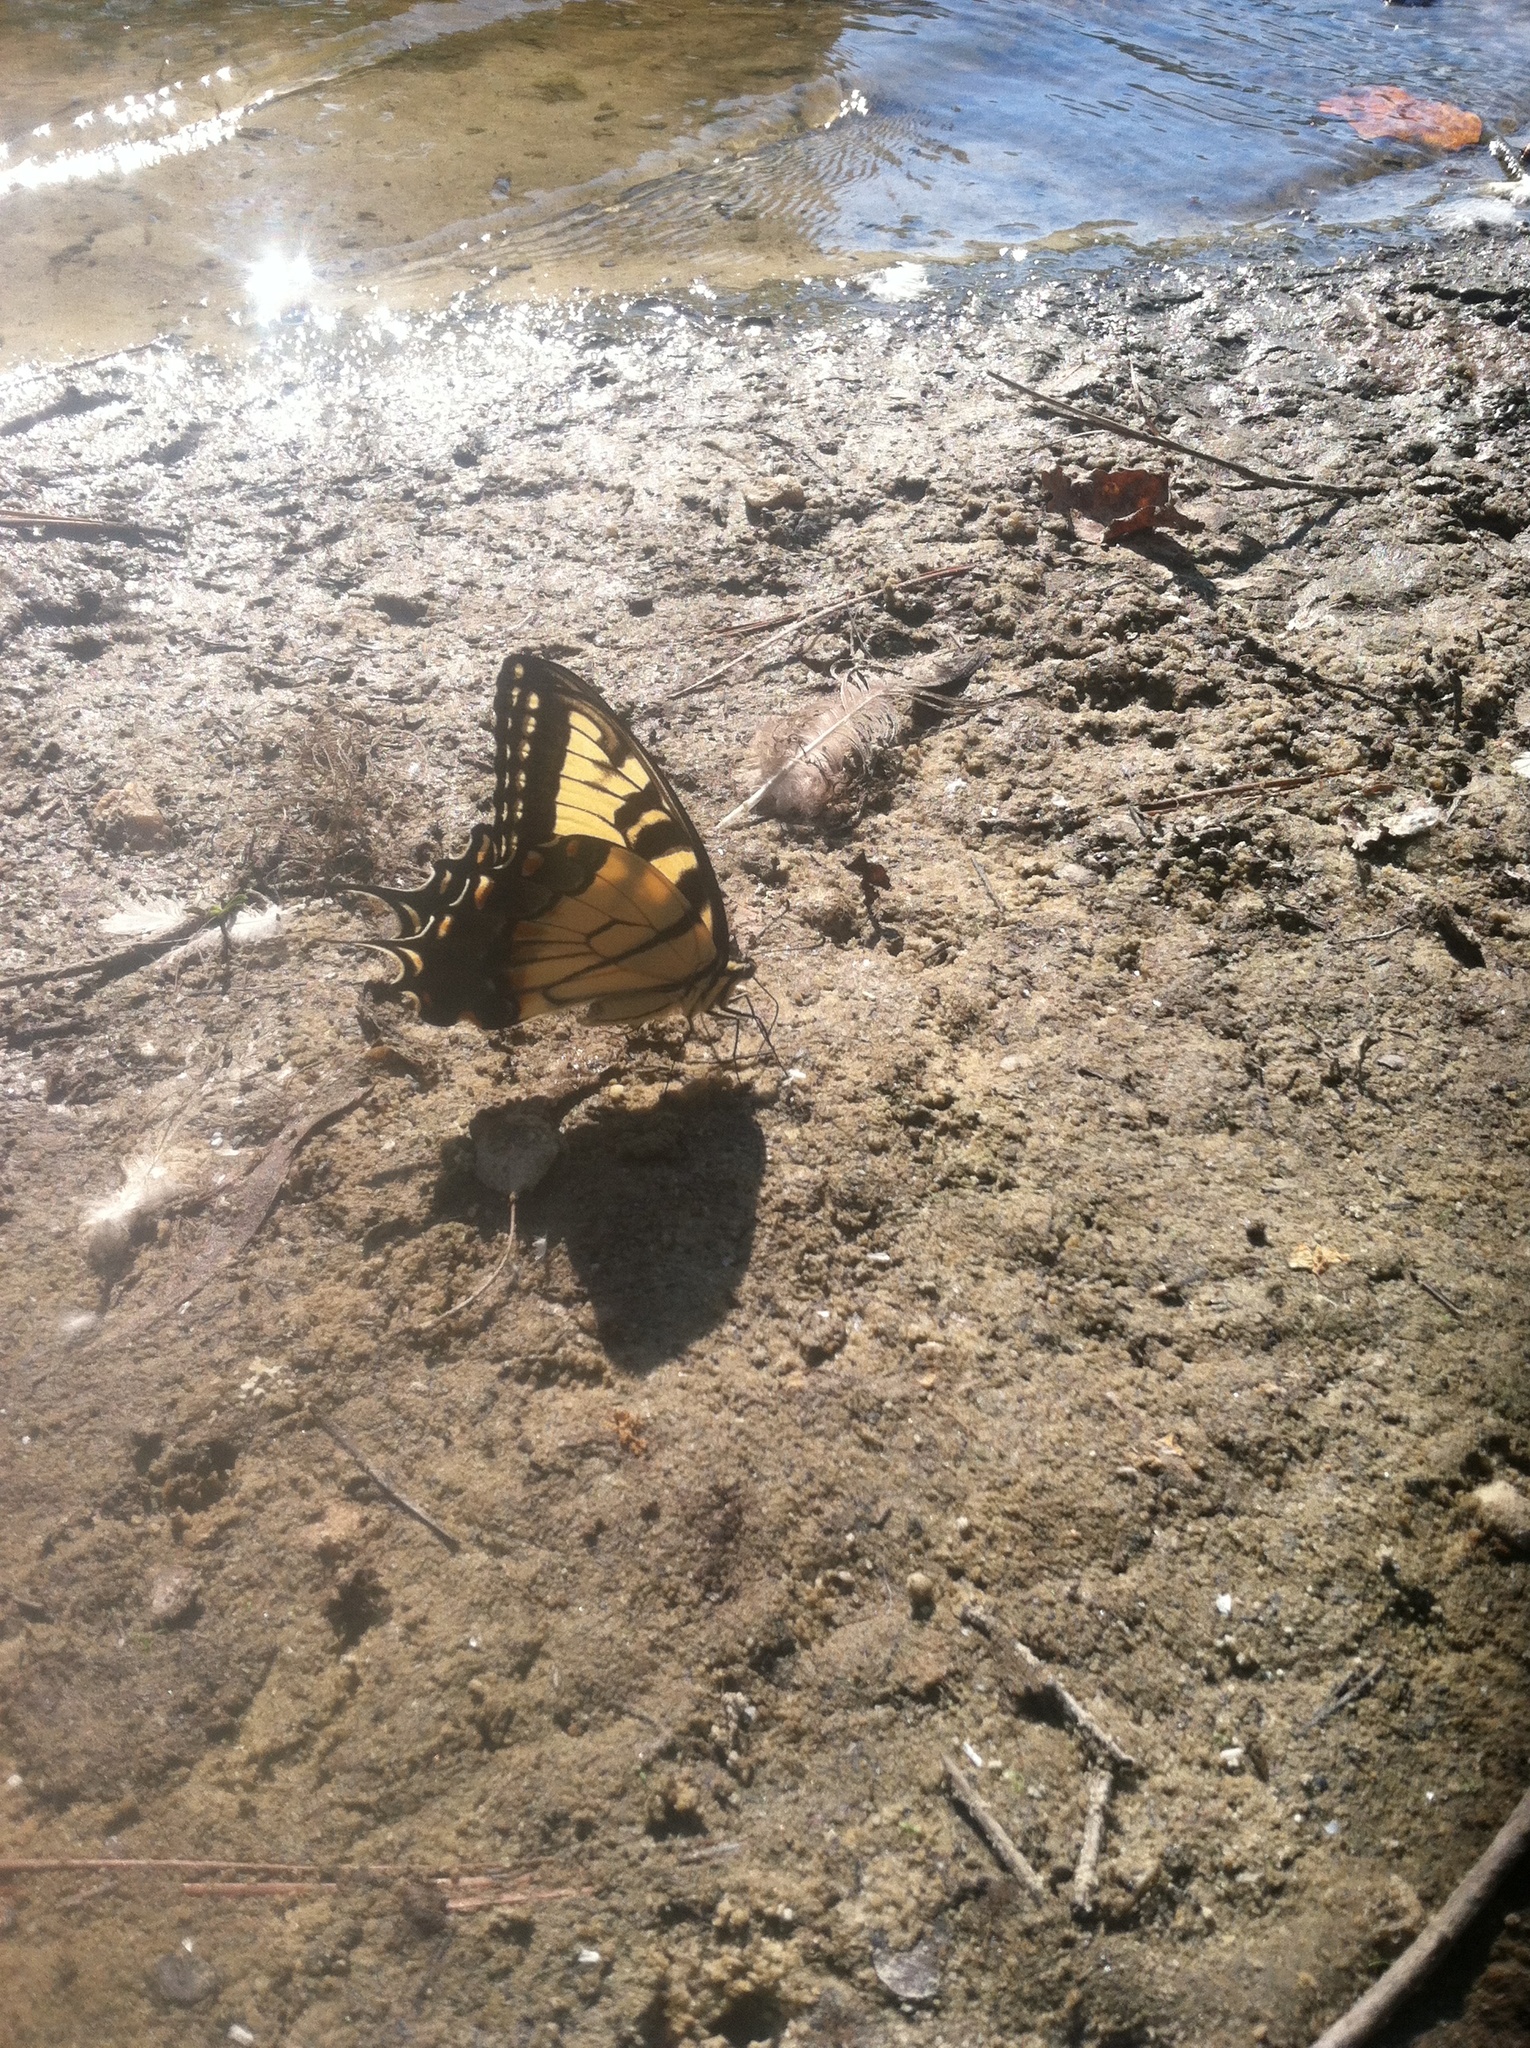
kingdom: Animalia
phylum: Arthropoda
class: Insecta
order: Lepidoptera
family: Papilionidae
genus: Papilio
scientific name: Papilio glaucus
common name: Tiger swallowtail
